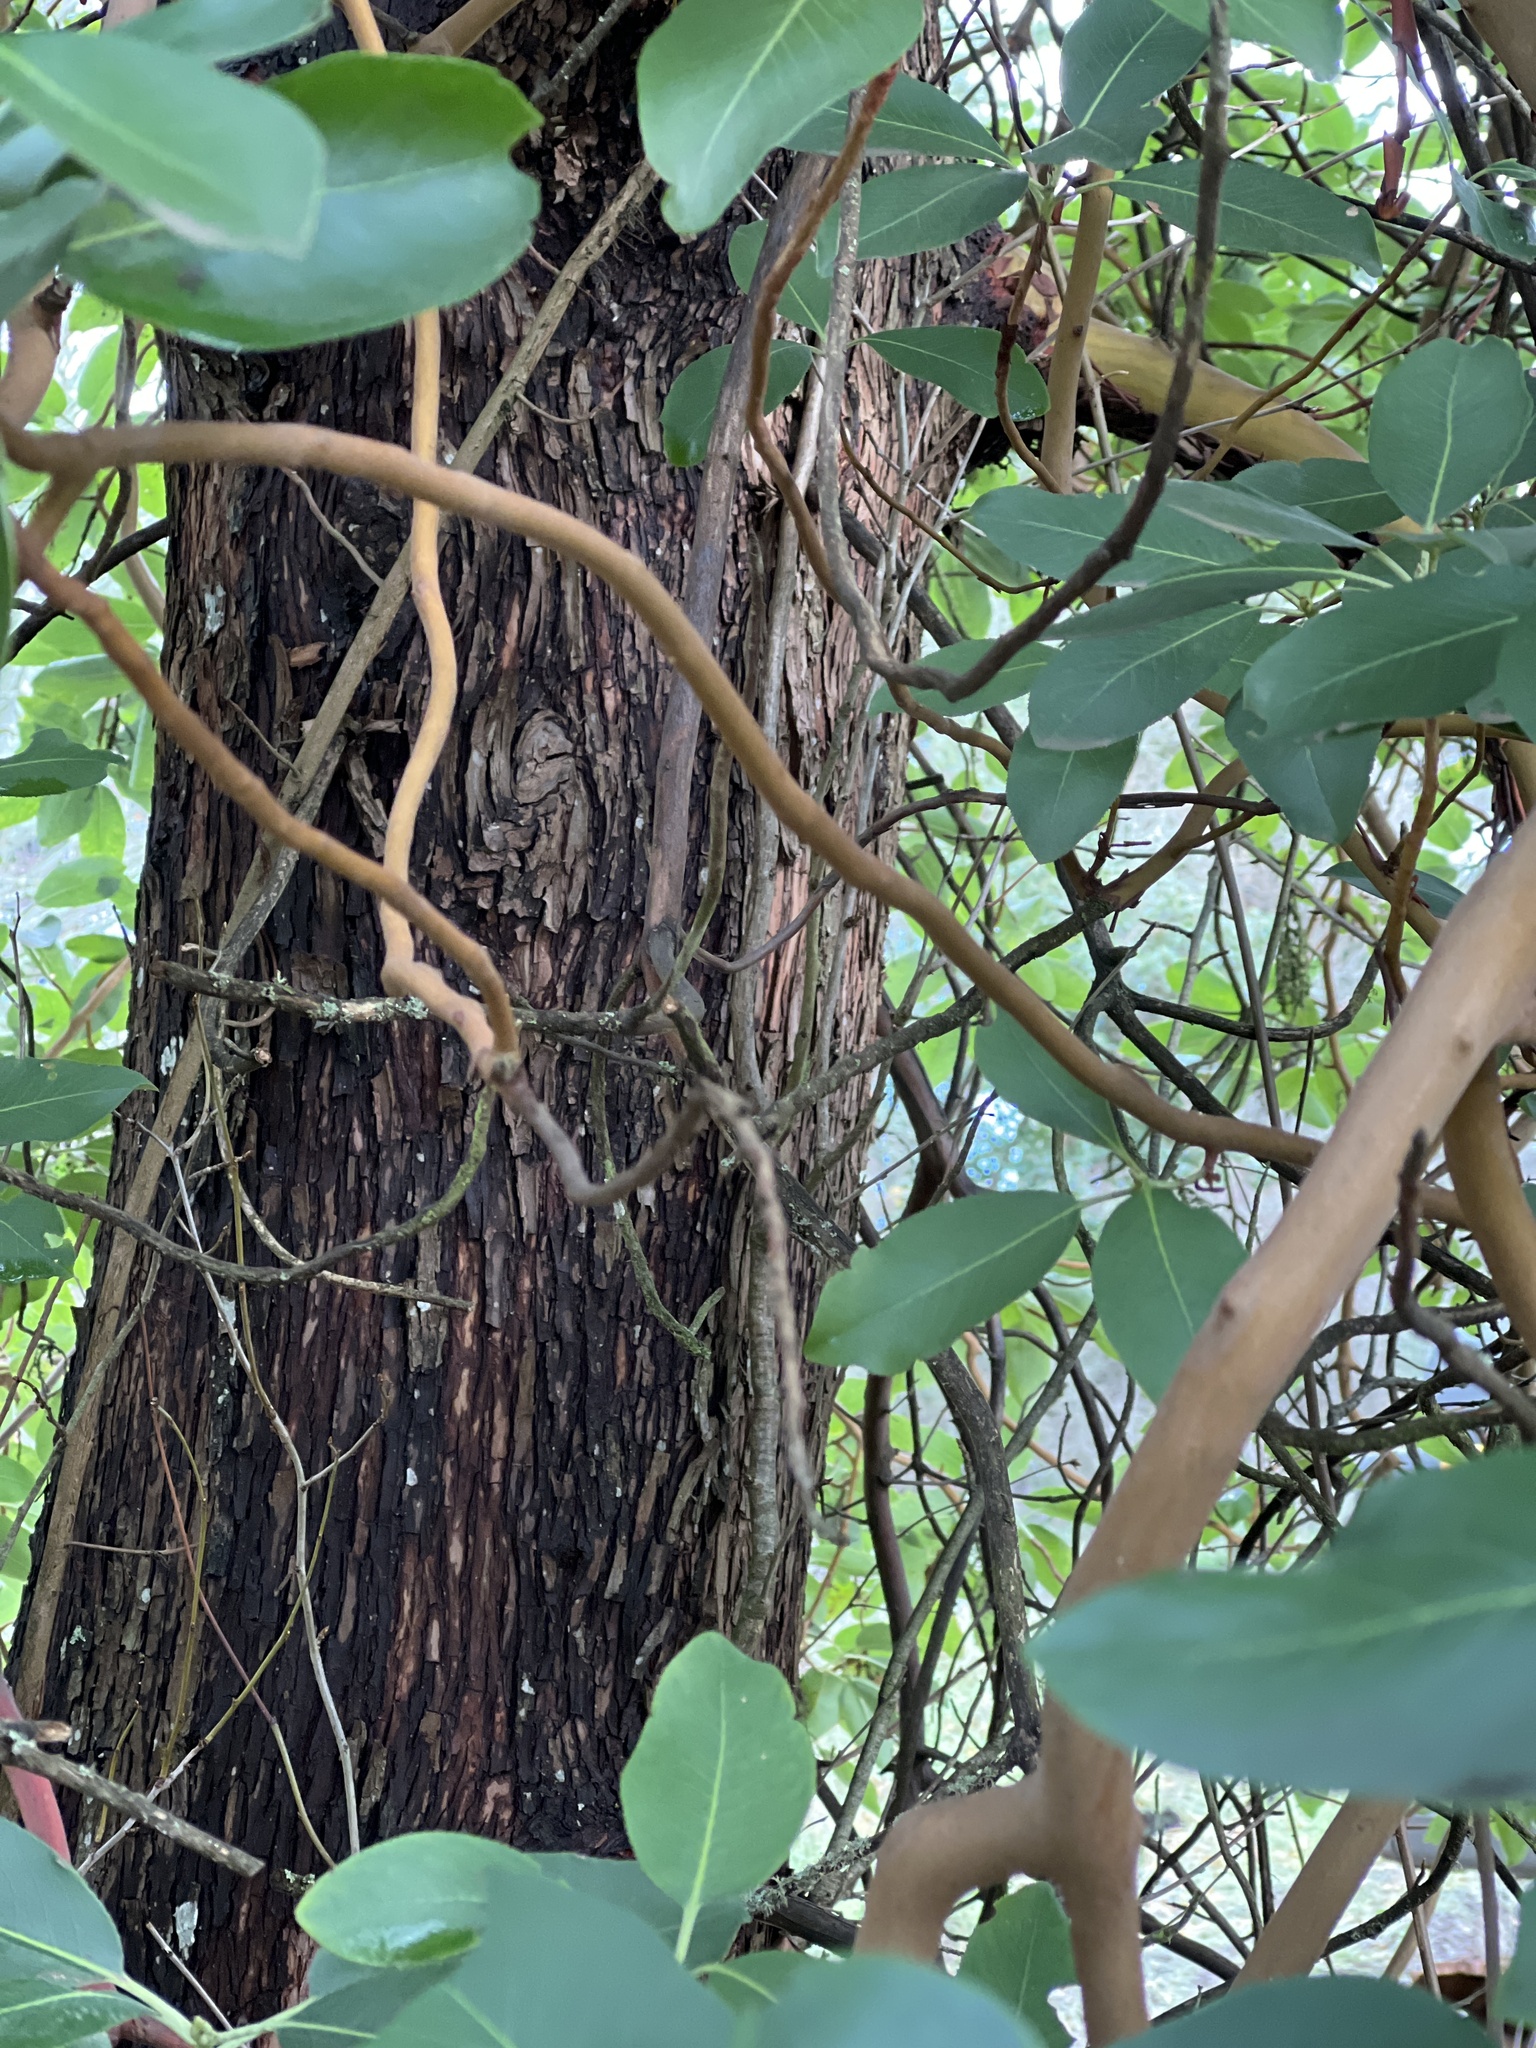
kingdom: Plantae
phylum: Tracheophyta
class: Magnoliopsida
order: Ericales
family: Ericaceae
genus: Arbutus
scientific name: Arbutus menziesii
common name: Pacific madrone
